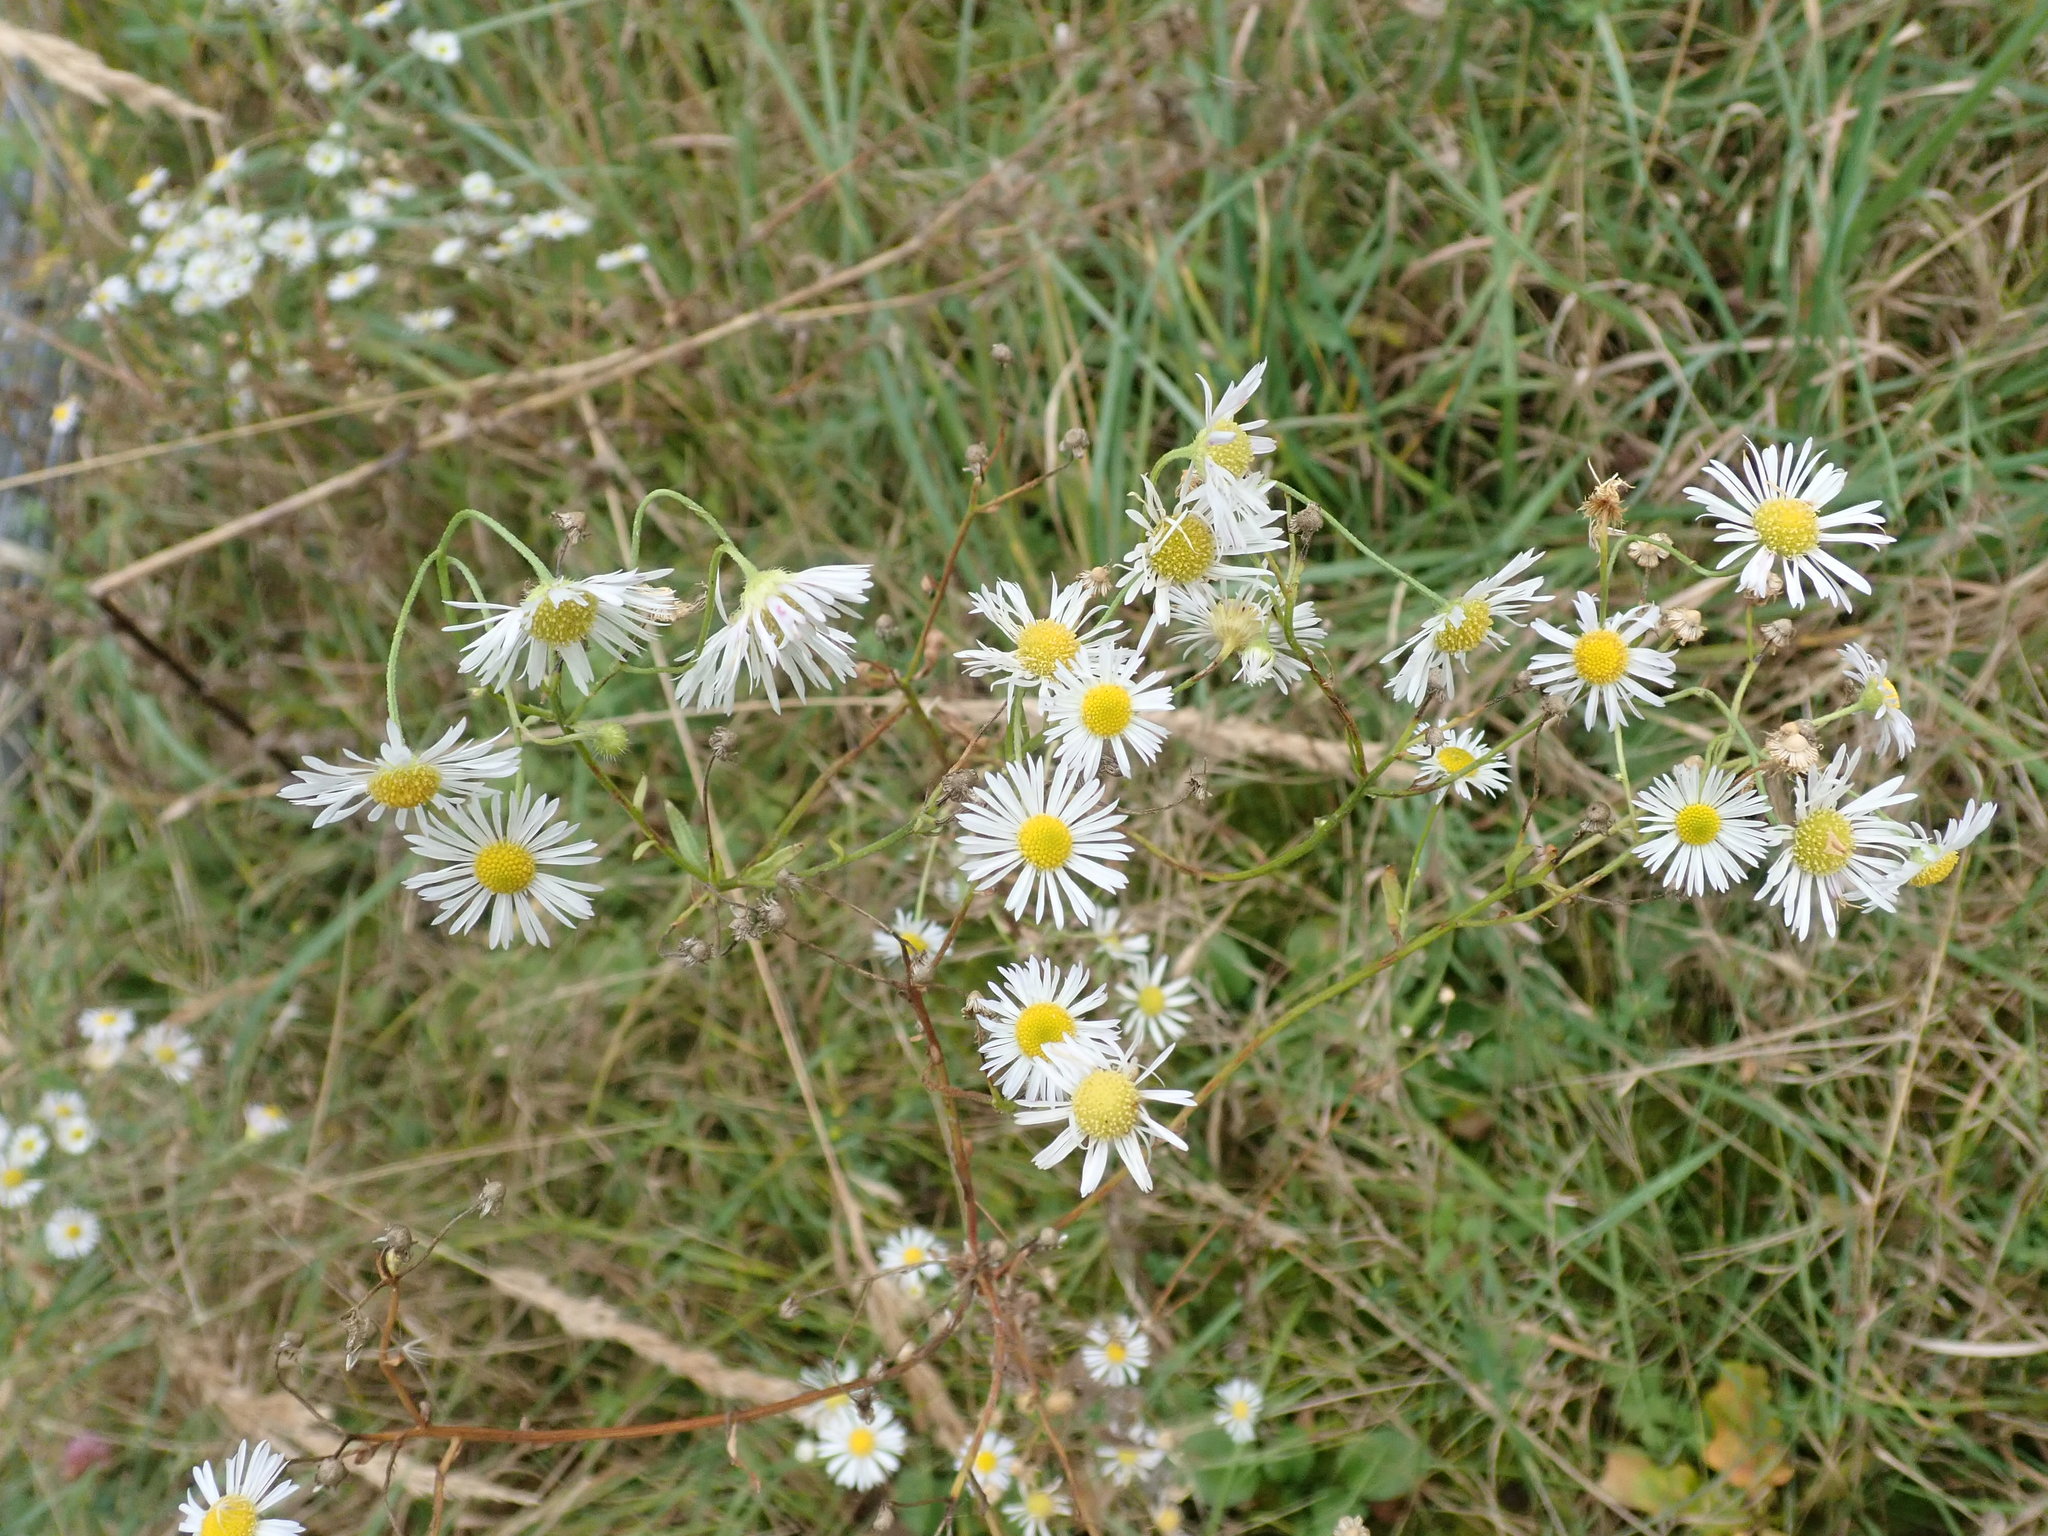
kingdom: Plantae
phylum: Tracheophyta
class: Magnoliopsida
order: Asterales
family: Asteraceae
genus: Erigeron
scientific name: Erigeron annuus
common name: Tall fleabane
